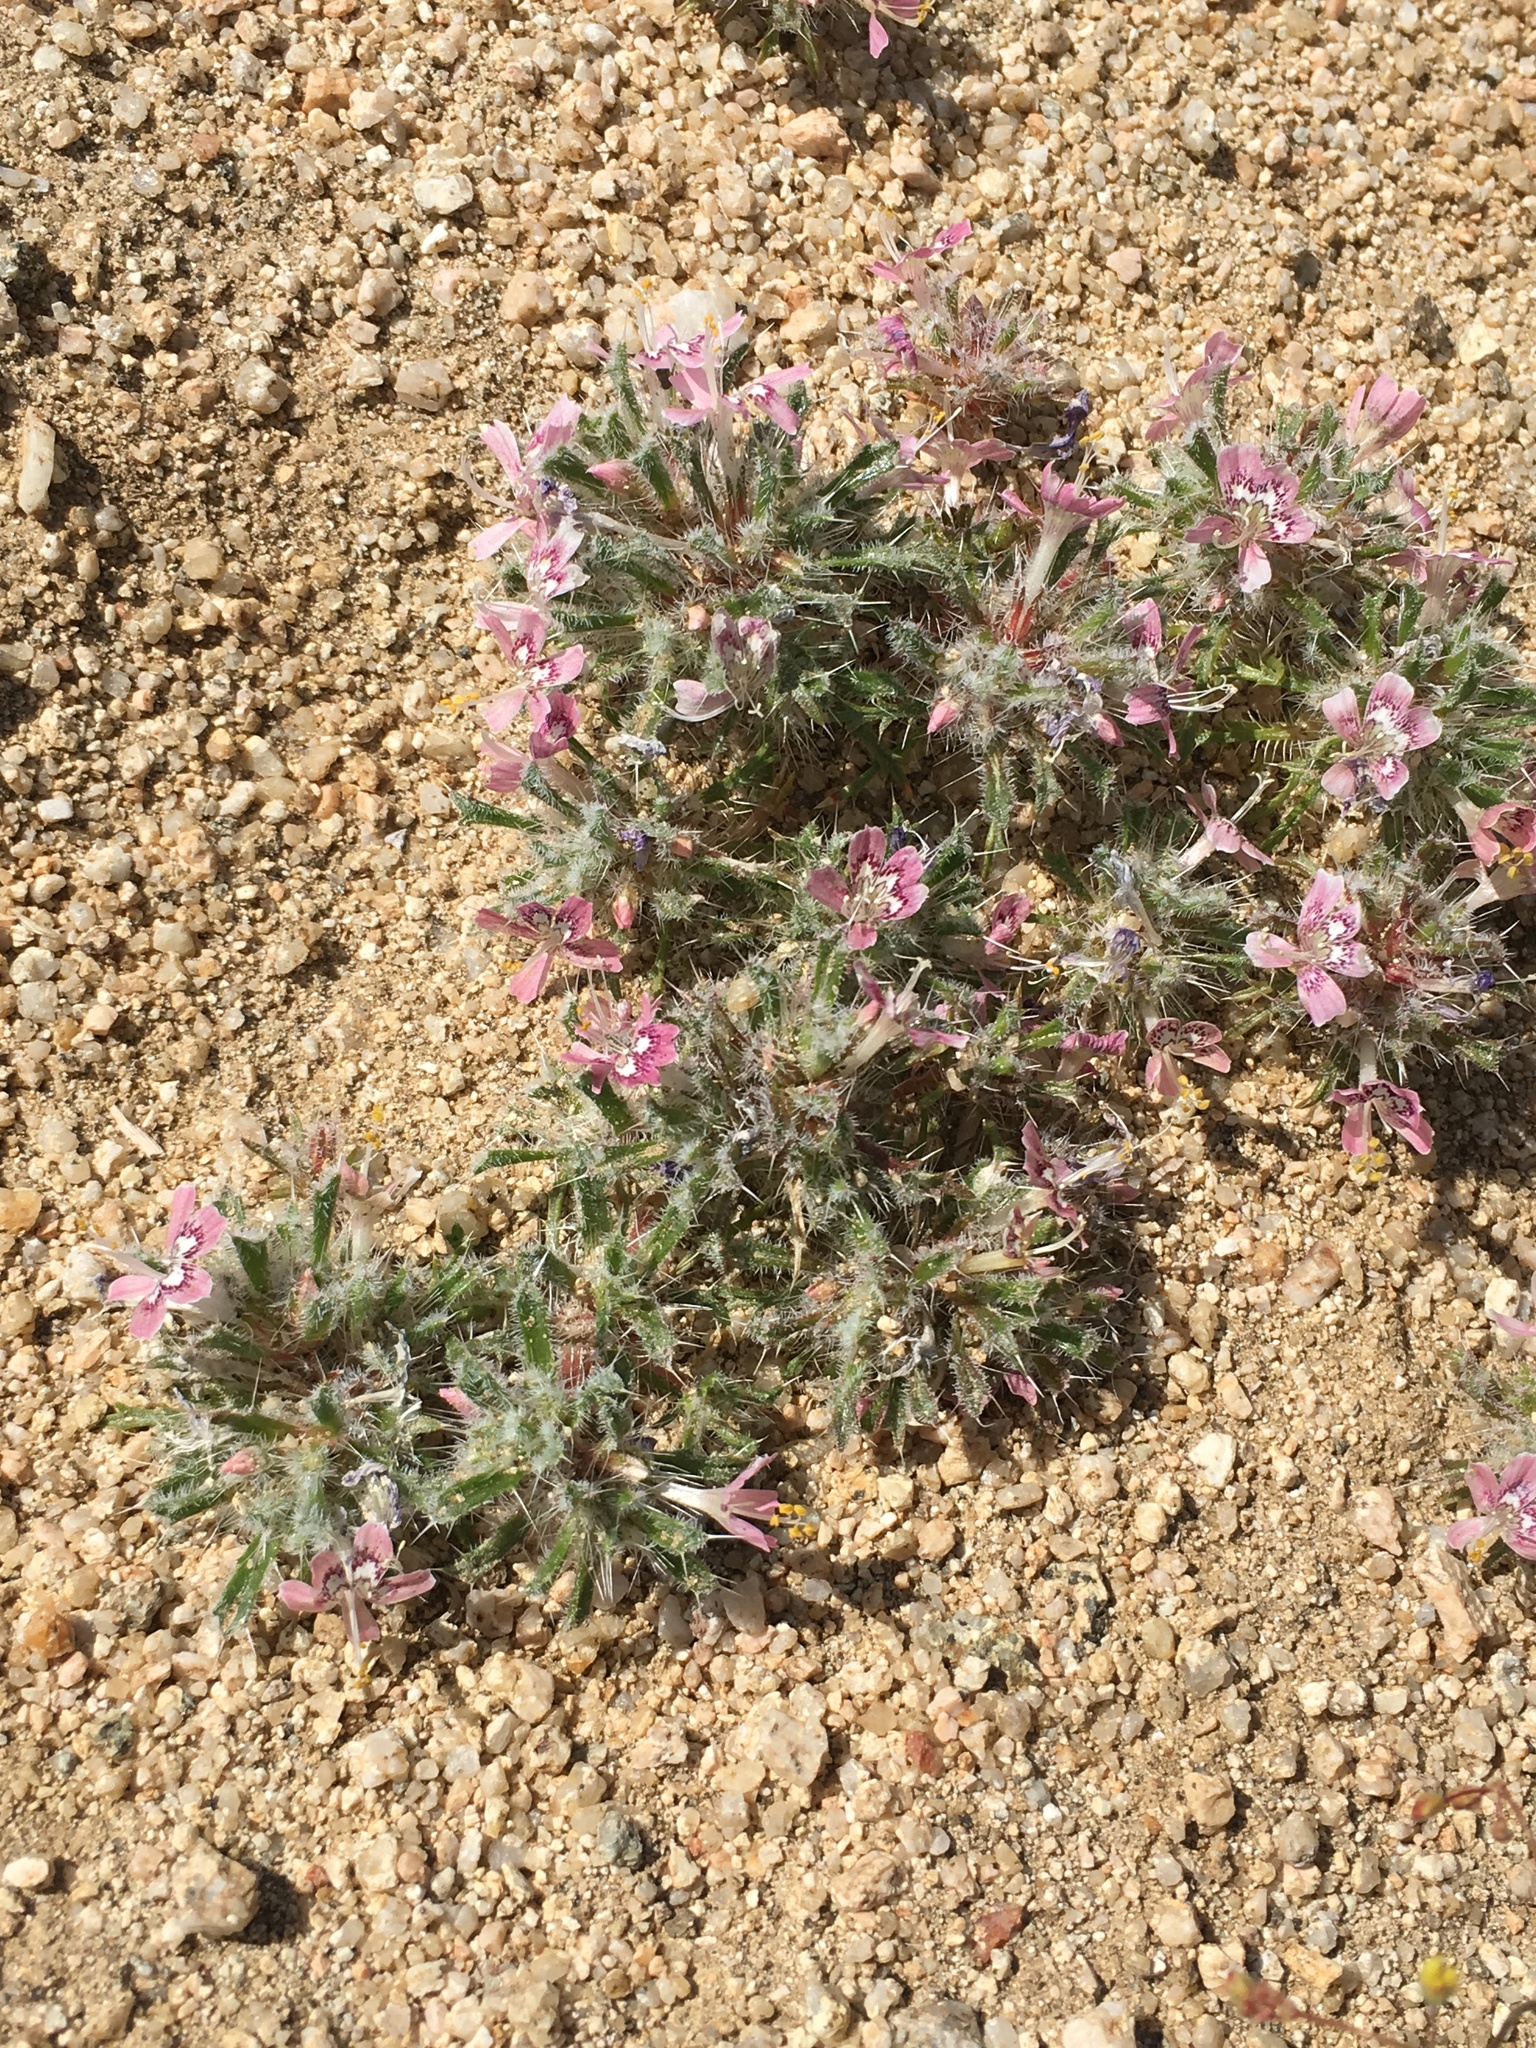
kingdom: Plantae
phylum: Tracheophyta
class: Magnoliopsida
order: Ericales
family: Polemoniaceae
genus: Loeseliastrum
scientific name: Loeseliastrum matthewsii
